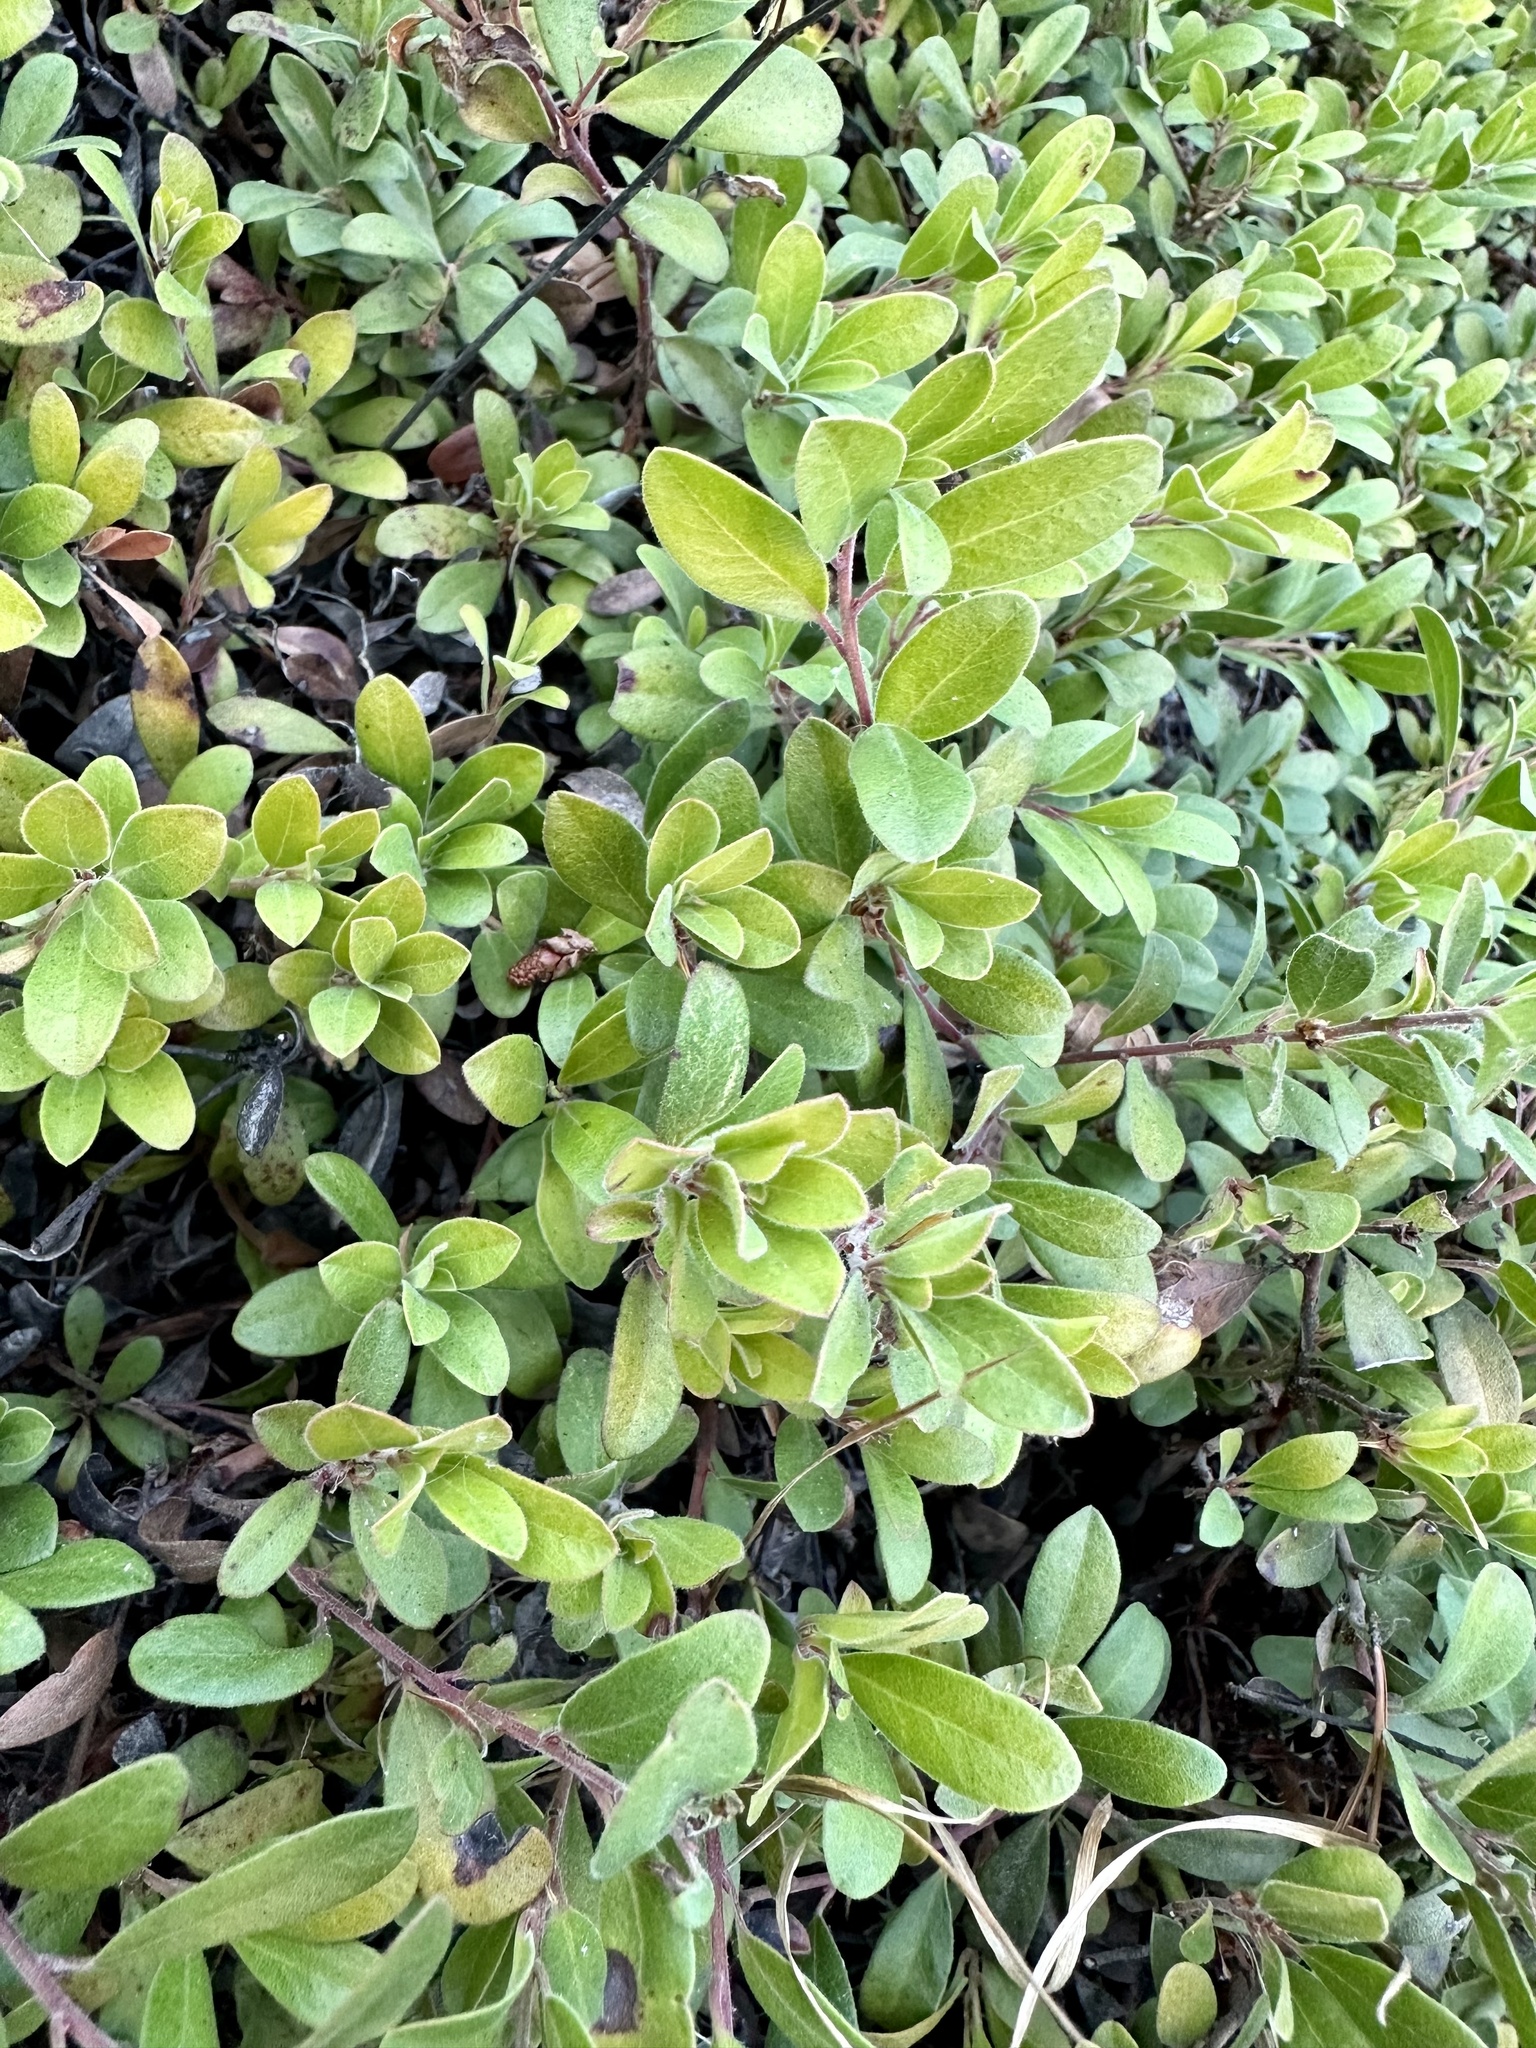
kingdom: Plantae
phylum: Tracheophyta
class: Magnoliopsida
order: Ericales
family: Ericaceae
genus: Arctostaphylos
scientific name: Arctostaphylos media
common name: Hybrid manzanita
